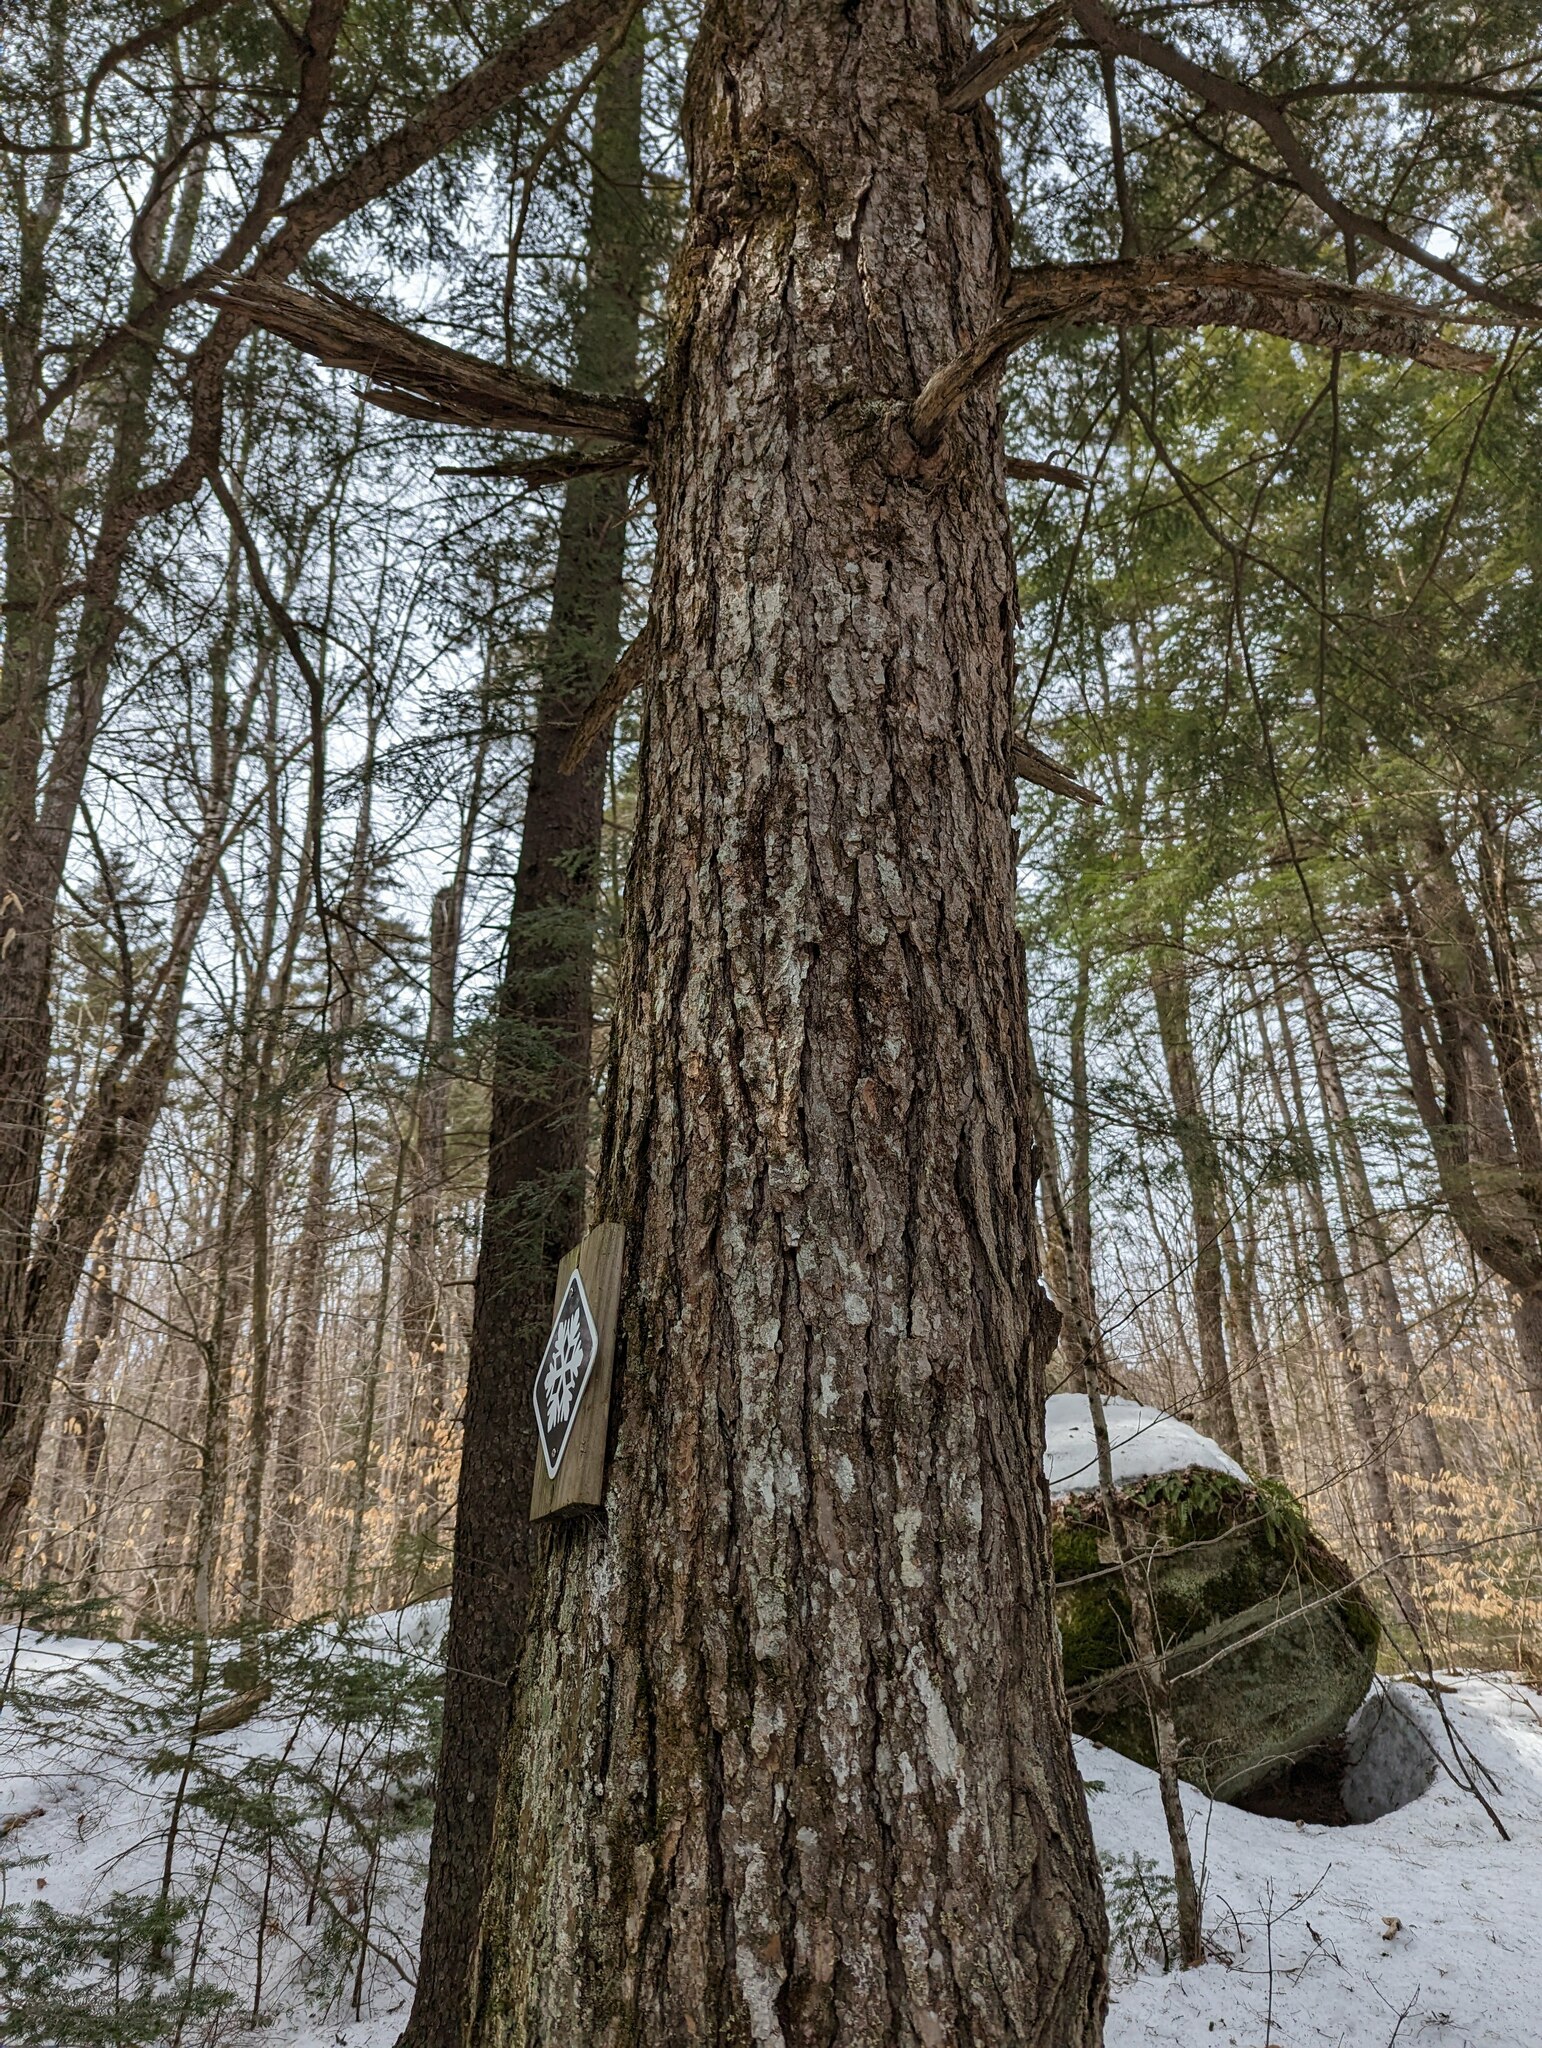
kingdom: Plantae
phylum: Tracheophyta
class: Pinopsida
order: Pinales
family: Pinaceae
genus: Tsuga
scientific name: Tsuga canadensis
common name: Eastern hemlock
